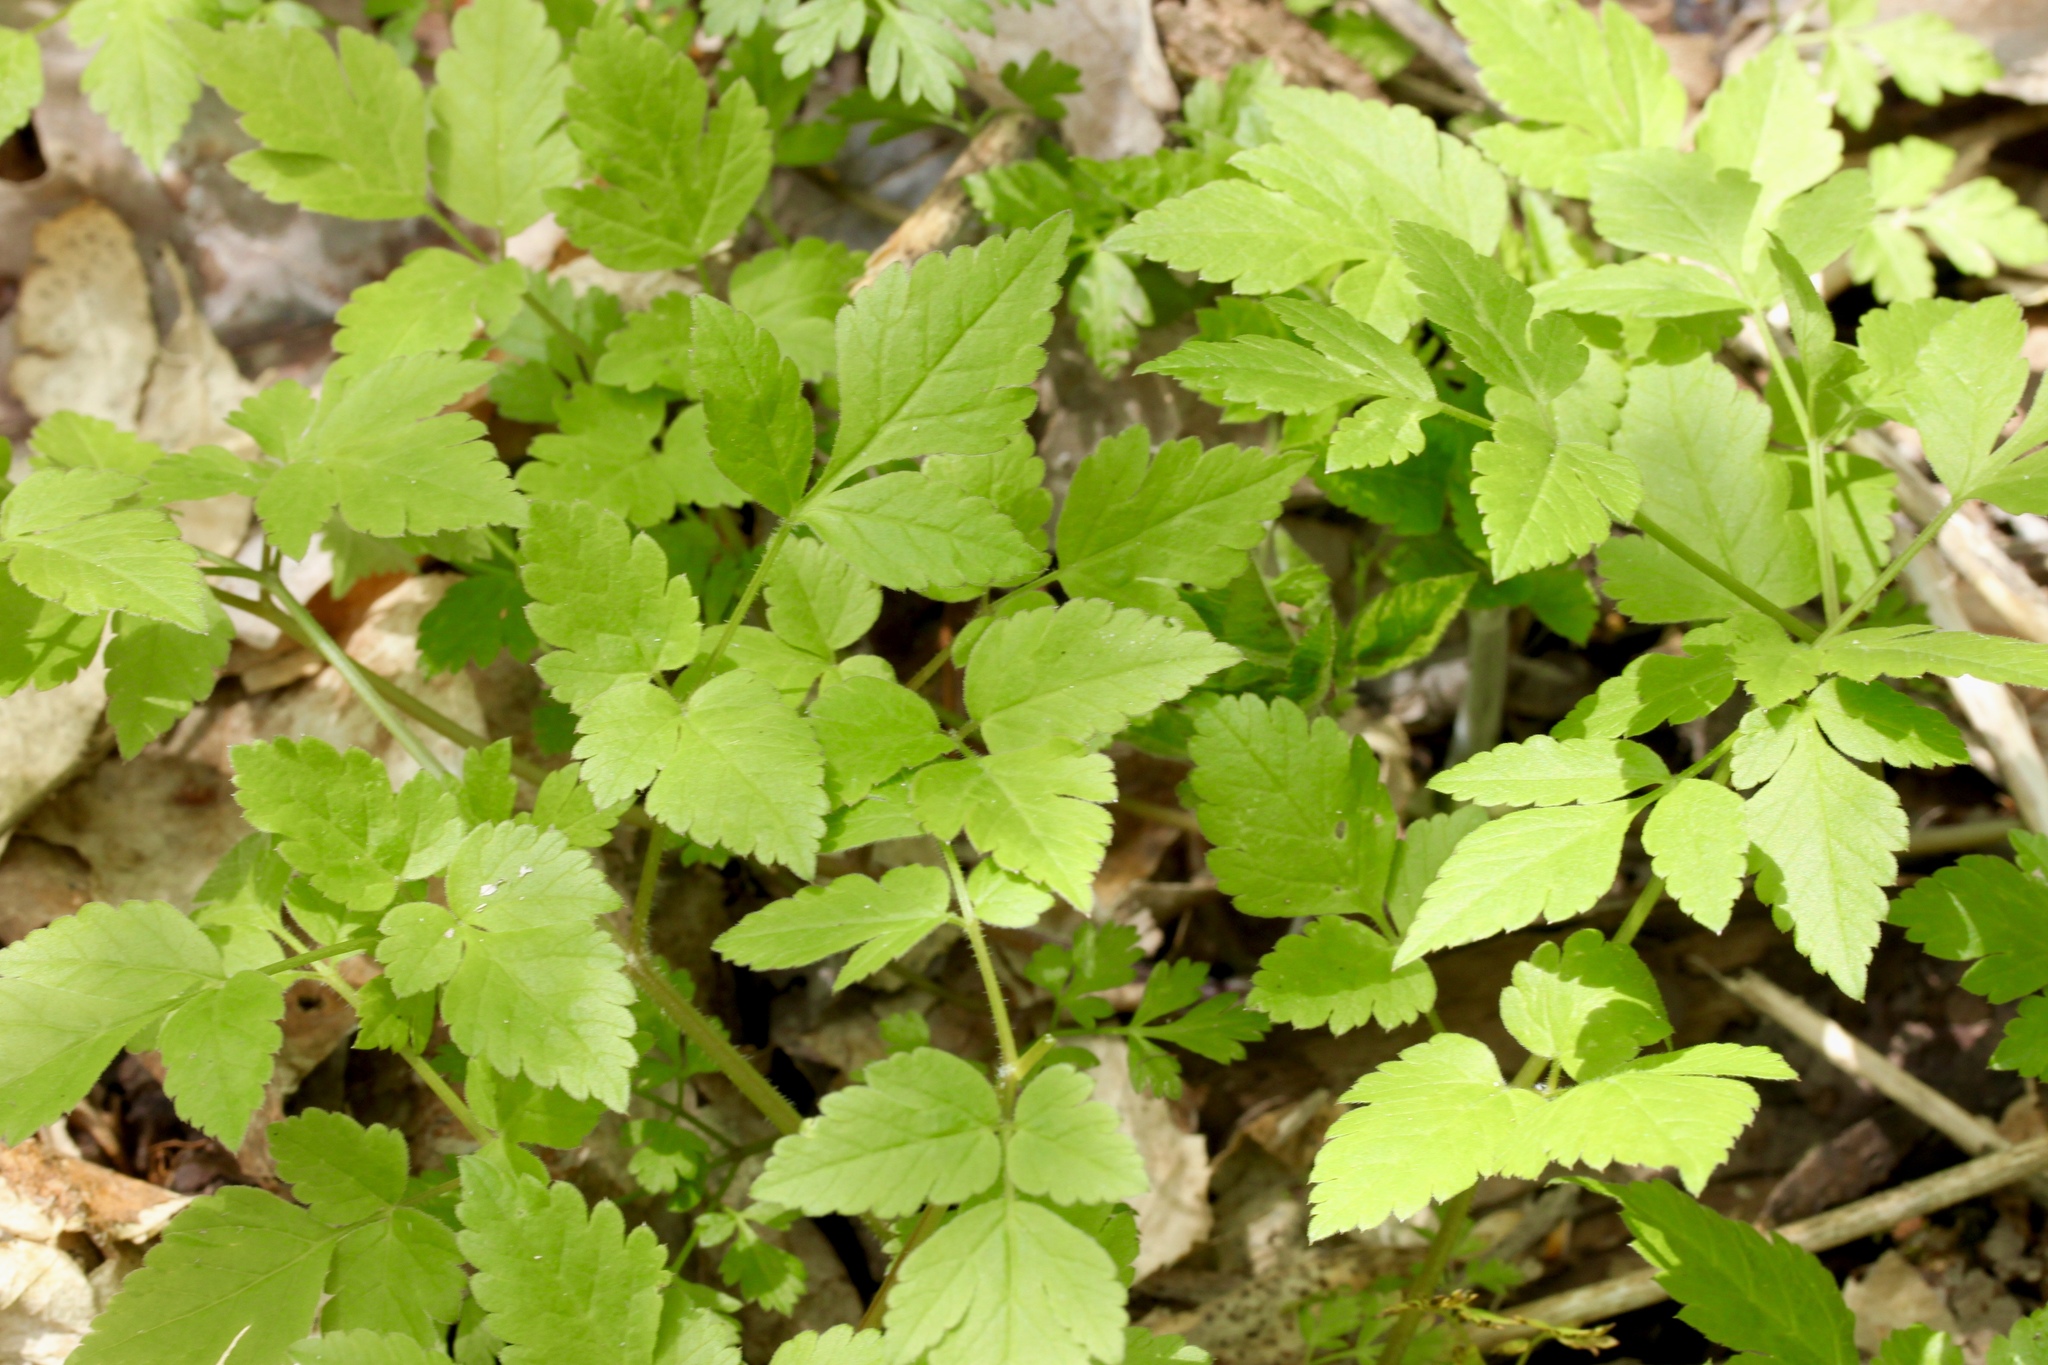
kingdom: Plantae
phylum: Tracheophyta
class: Magnoliopsida
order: Apiales
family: Apiaceae
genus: Osmorhiza
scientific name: Osmorhiza longistylis
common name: Smooth sweet cicely
